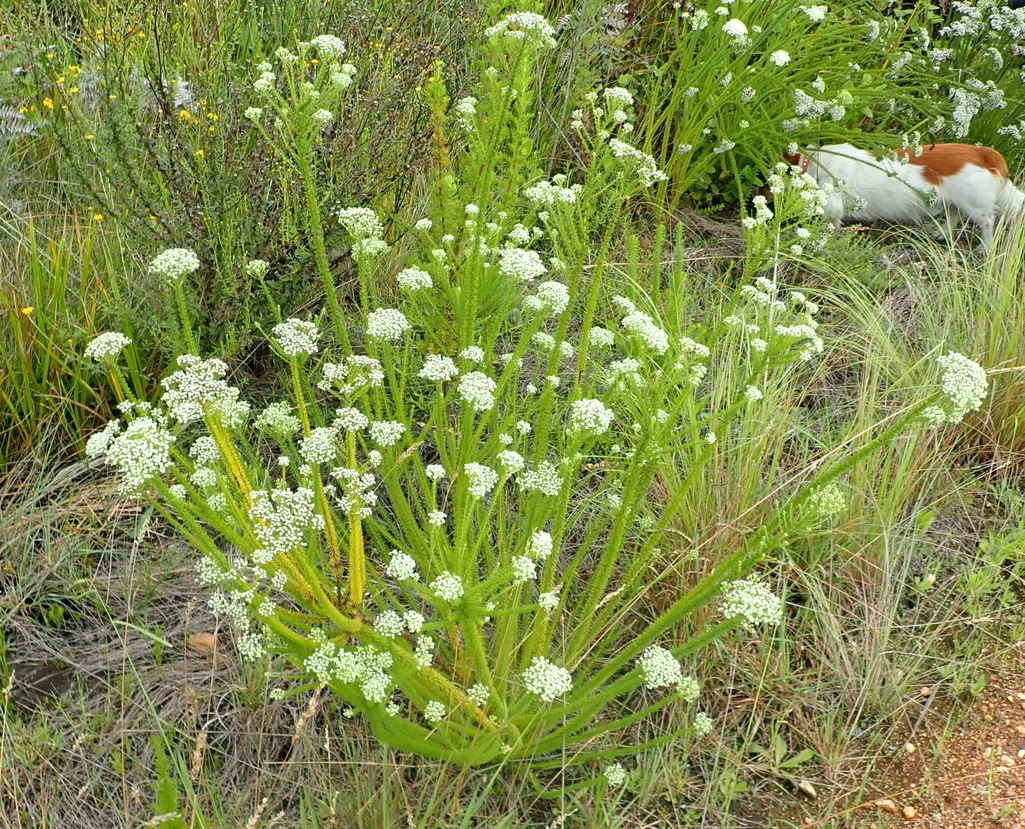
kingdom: Plantae
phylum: Tracheophyta
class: Magnoliopsida
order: Lamiales
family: Scrophulariaceae
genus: Selago
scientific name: Selago corymbosa
